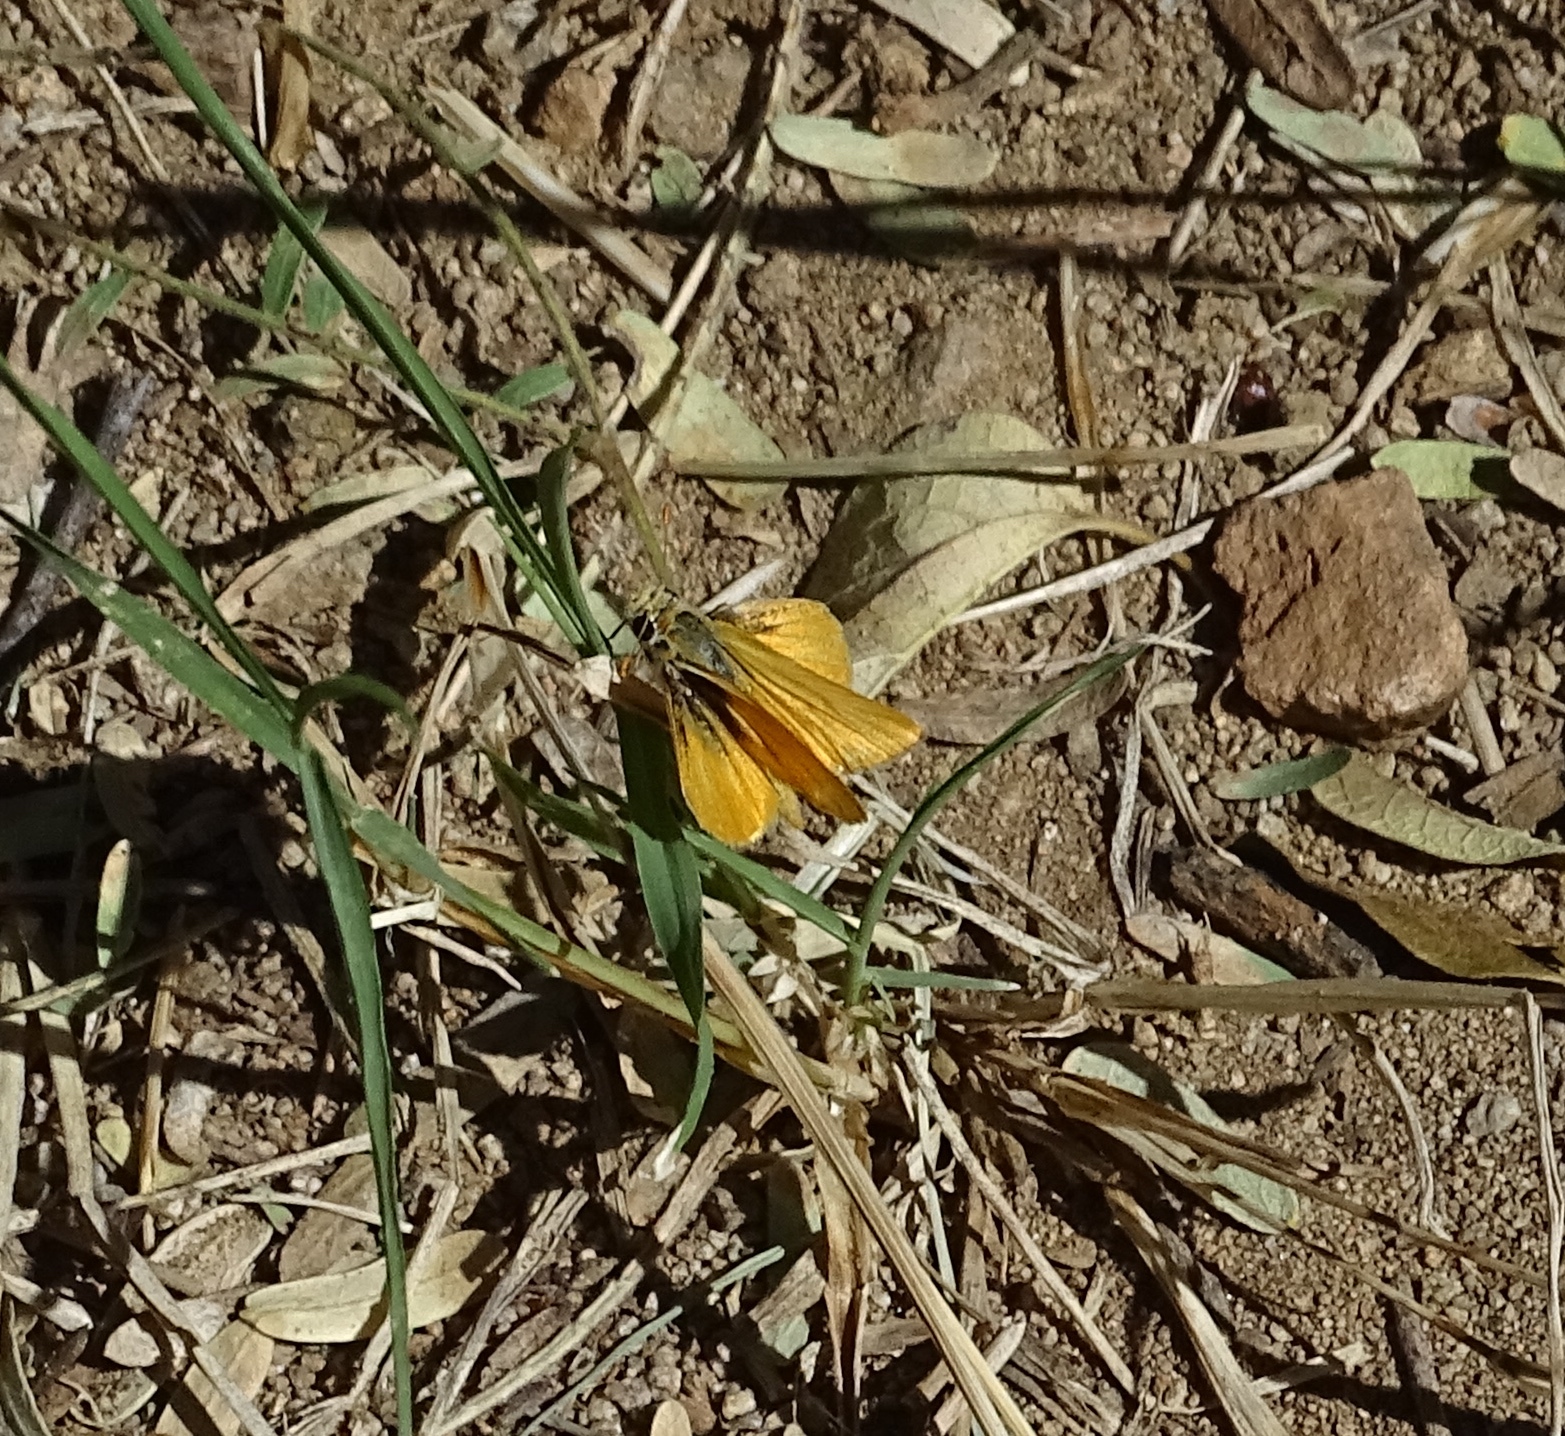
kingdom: Animalia
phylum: Arthropoda
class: Insecta
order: Lepidoptera
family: Hesperiidae
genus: Copaeodes
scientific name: Copaeodes aurantiaca
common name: Orange skipperling
